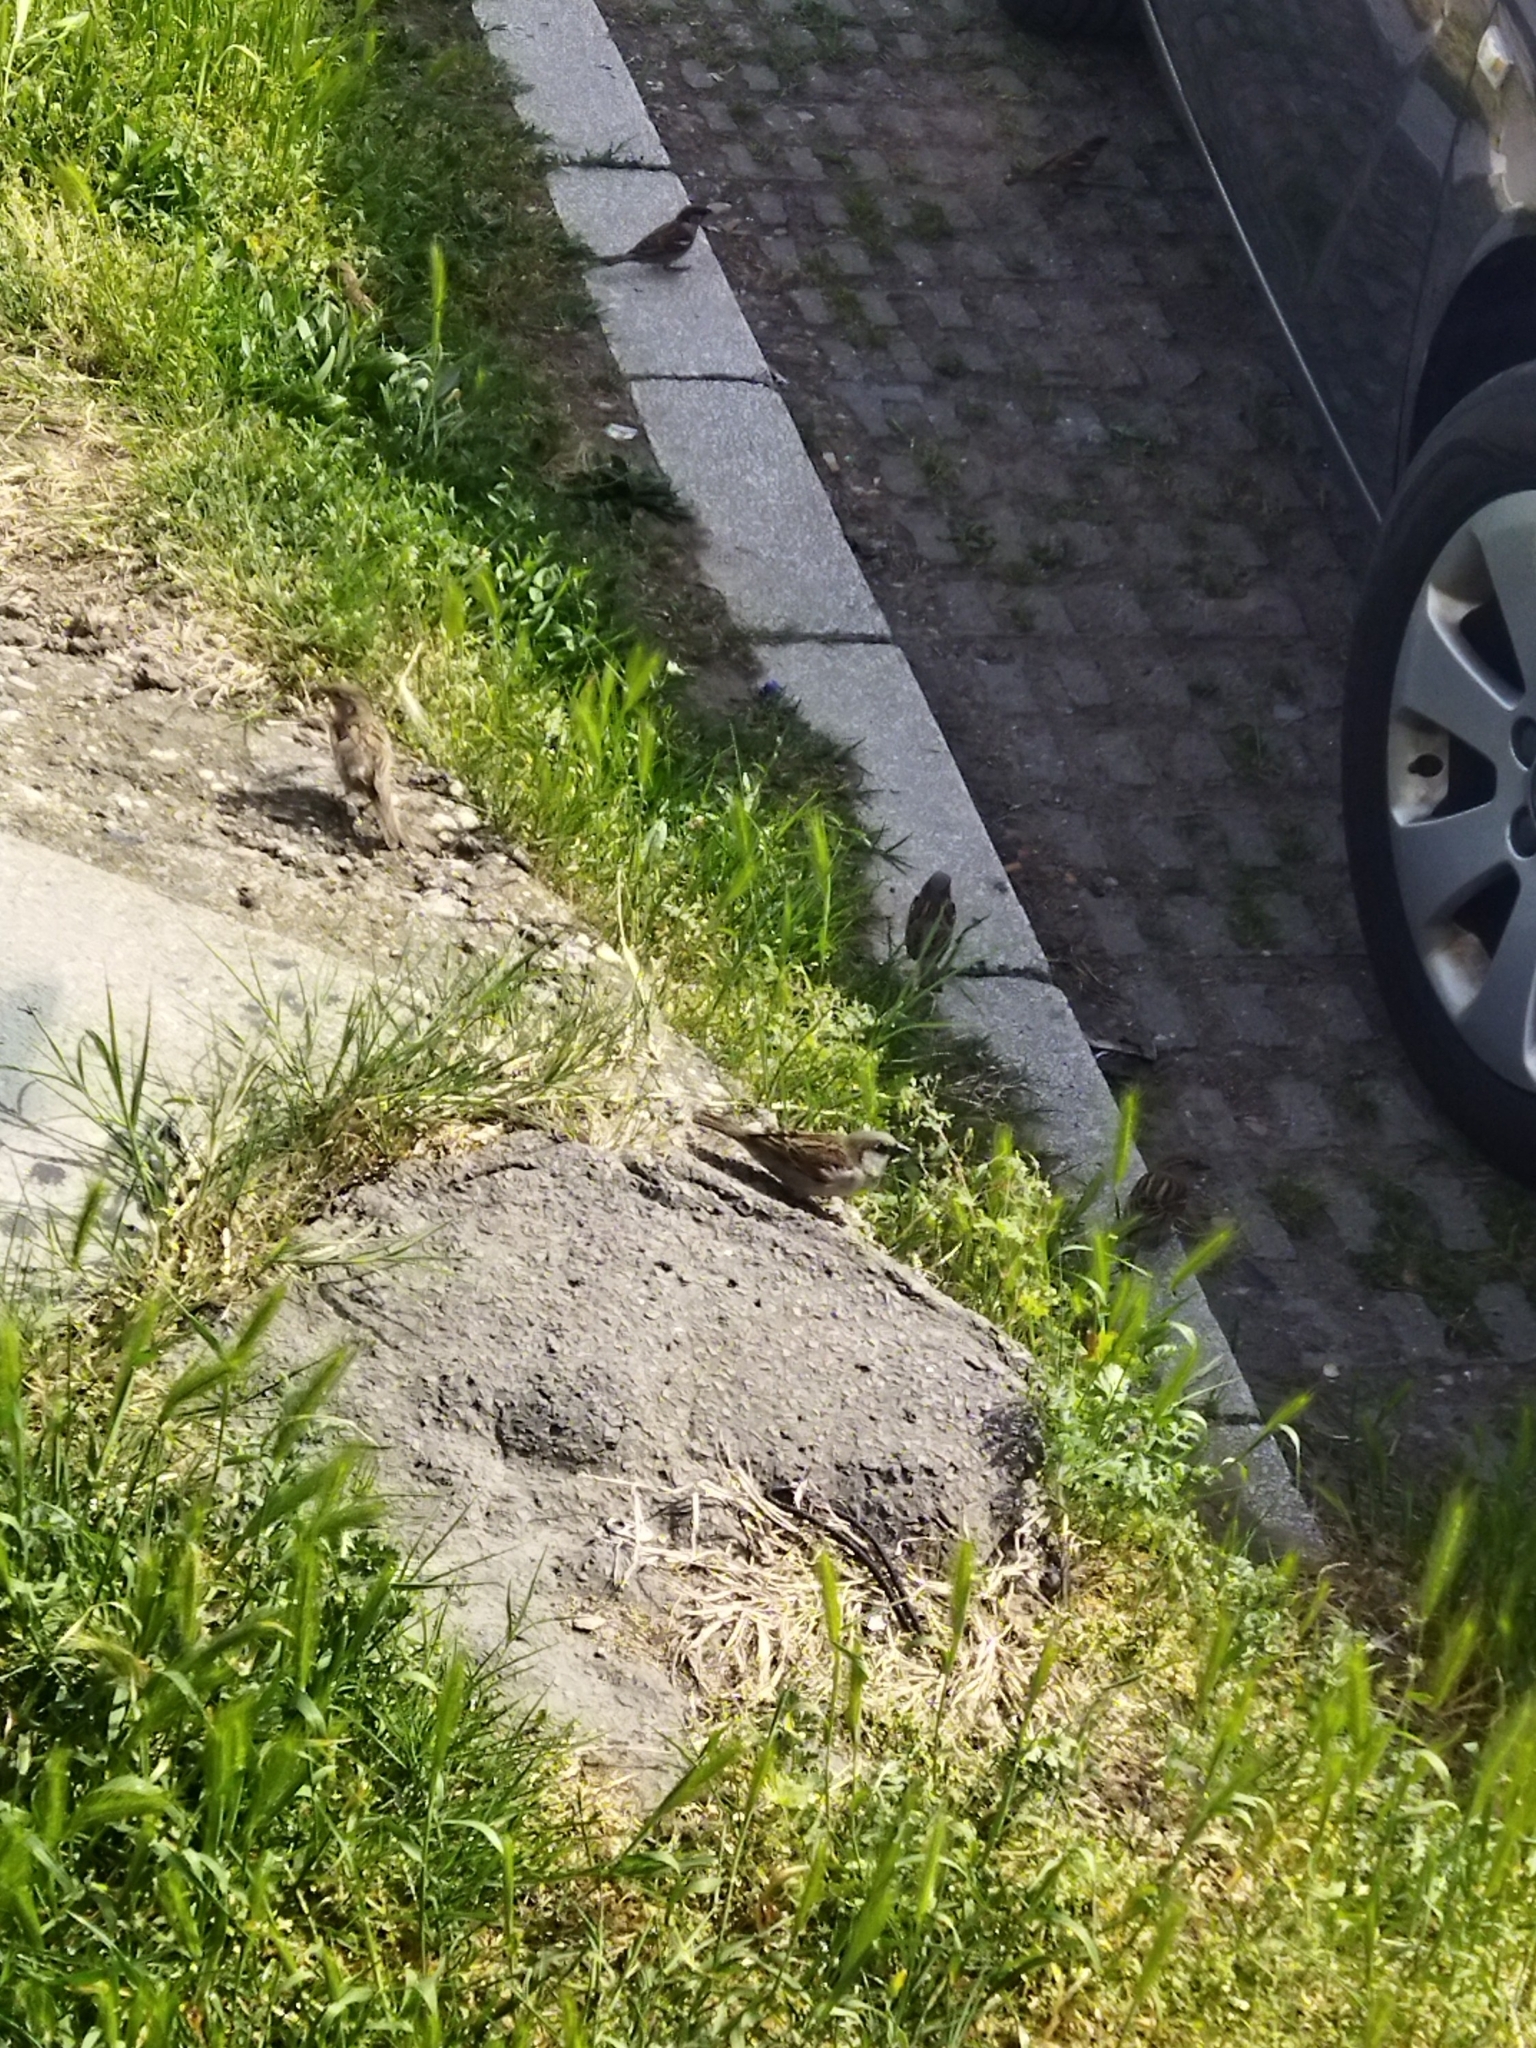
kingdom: Animalia
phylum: Chordata
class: Aves
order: Passeriformes
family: Passeridae
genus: Passer
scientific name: Passer domesticus
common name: House sparrow
